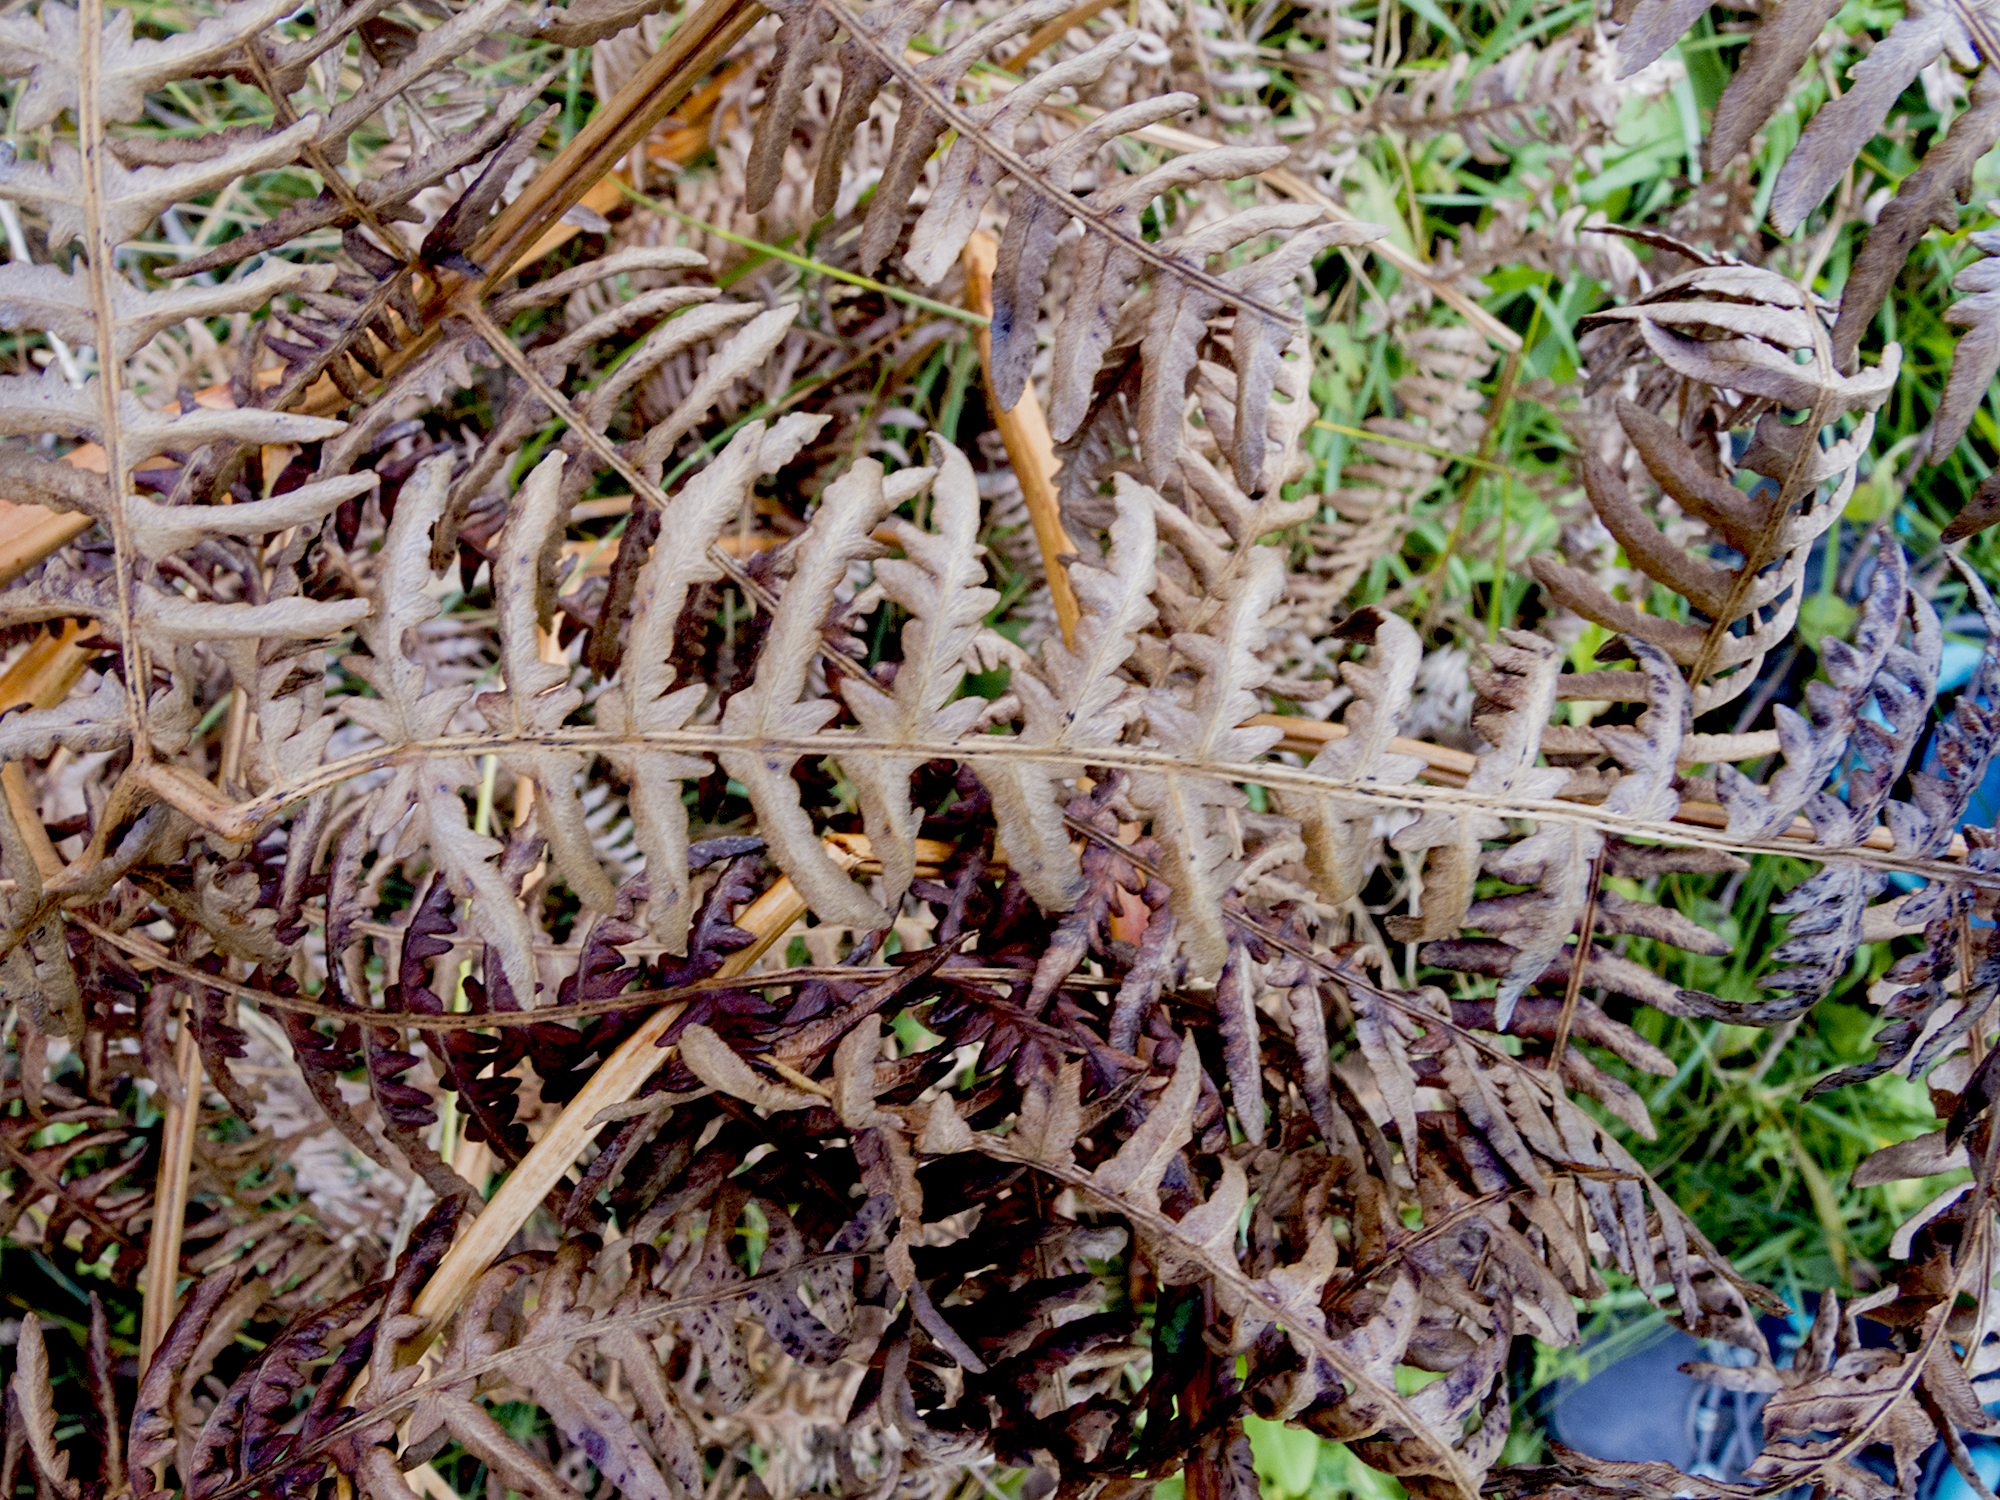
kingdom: Plantae
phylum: Tracheophyta
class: Polypodiopsida
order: Polypodiales
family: Dennstaedtiaceae
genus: Pteridium
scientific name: Pteridium aquilinum
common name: Bracken
